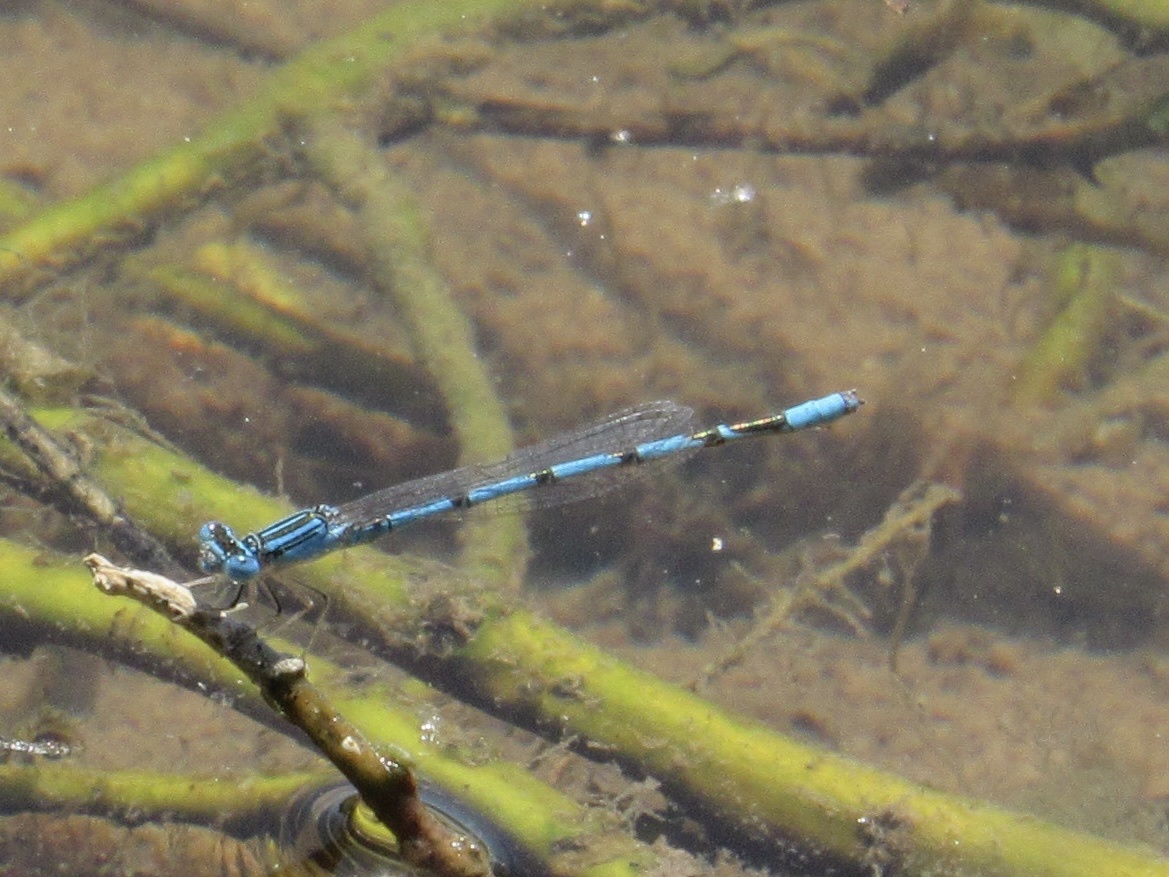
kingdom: Animalia
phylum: Arthropoda
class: Insecta
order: Odonata
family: Coenagrionidae
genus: Enallagma
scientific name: Enallagma basidens
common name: Double-striped bluet
